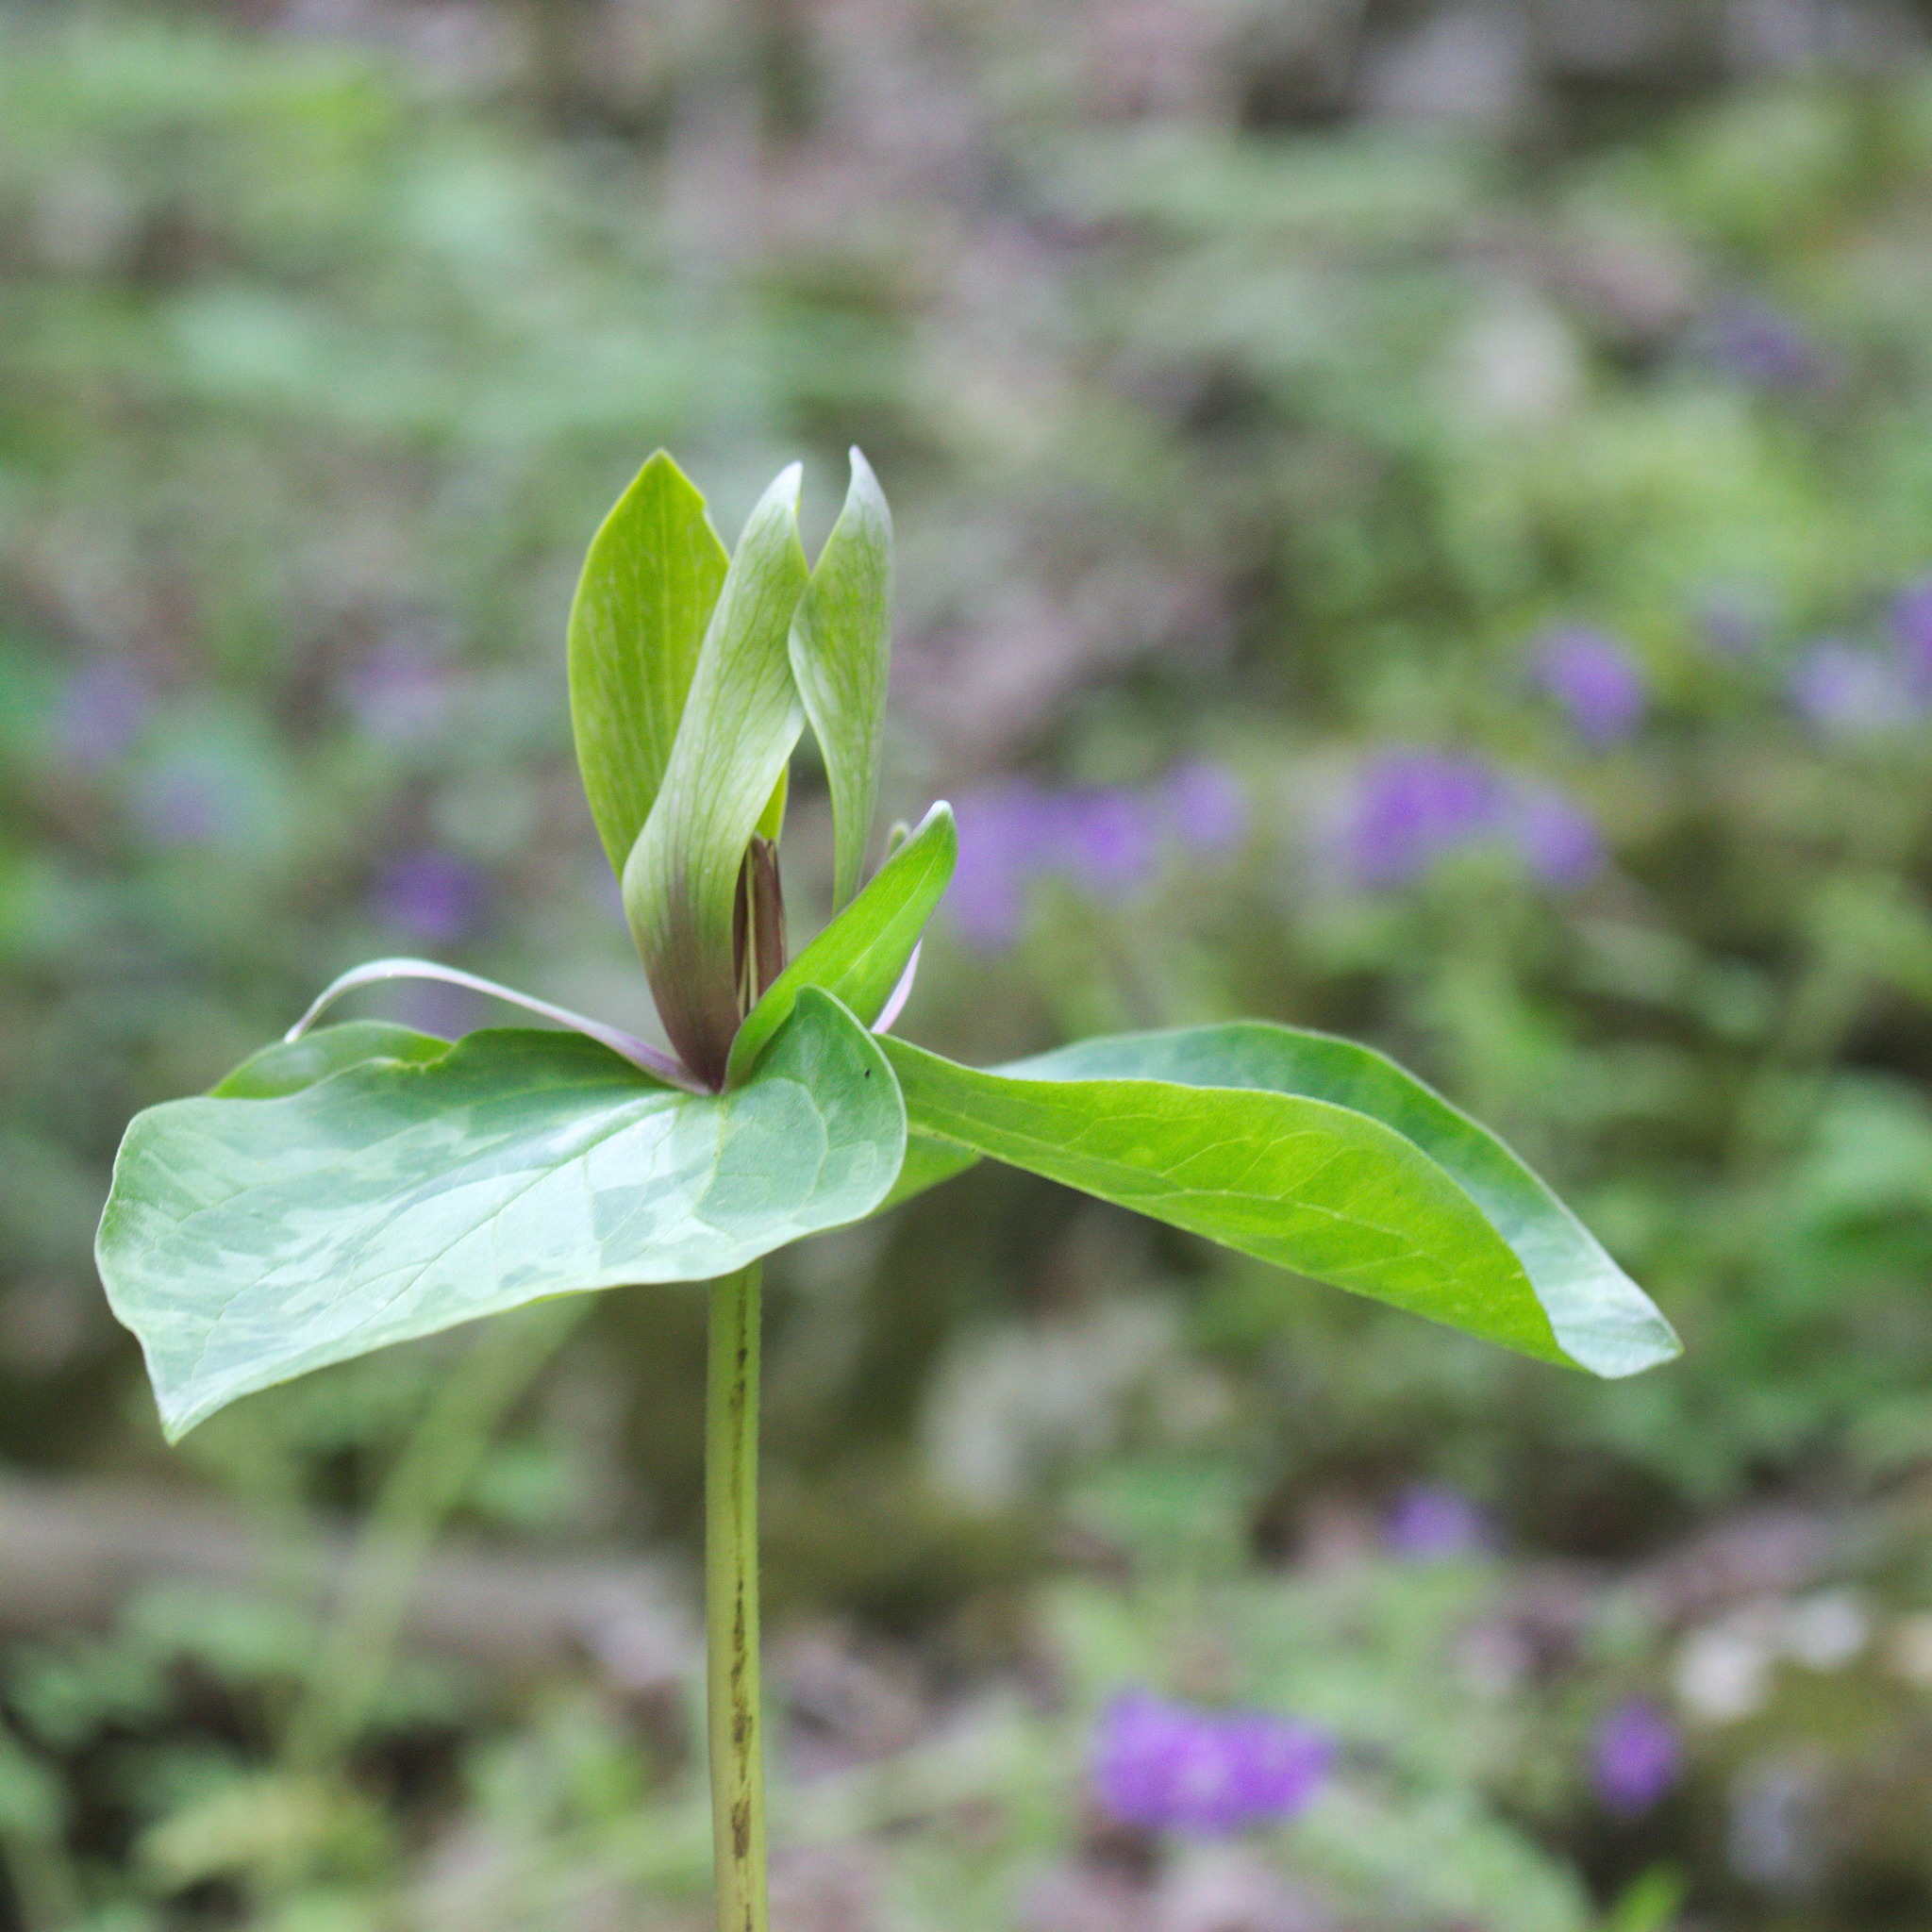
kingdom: Plantae
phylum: Tracheophyta
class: Liliopsida
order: Liliales
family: Melanthiaceae
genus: Trillium
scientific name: Trillium cuneatum
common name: Cuneate trillium
